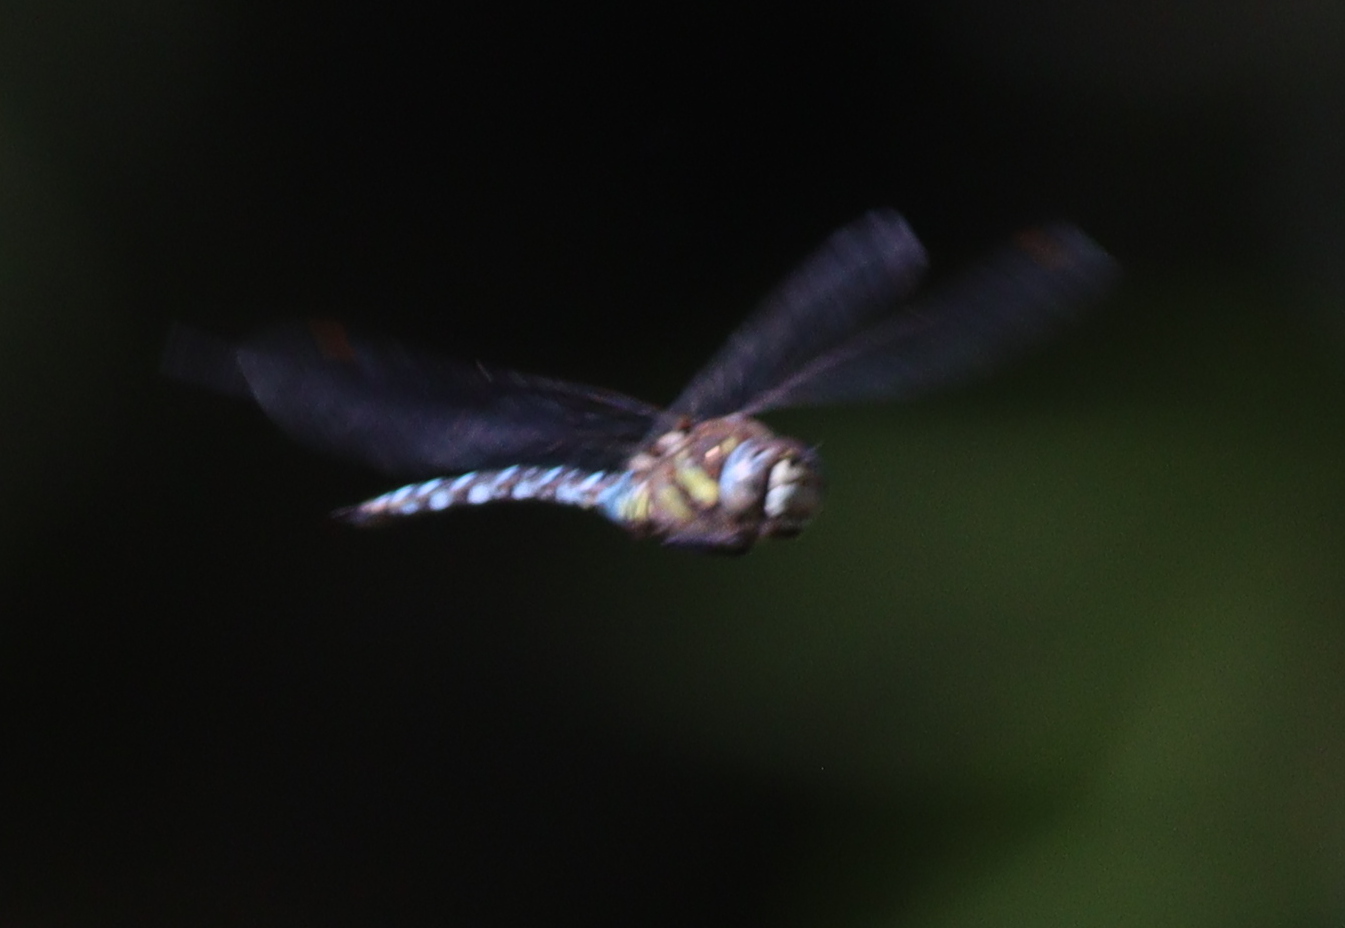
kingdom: Animalia
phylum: Arthropoda
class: Insecta
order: Odonata
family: Aeshnidae
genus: Aeshna
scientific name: Aeshna mixta
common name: Migrant hawker
